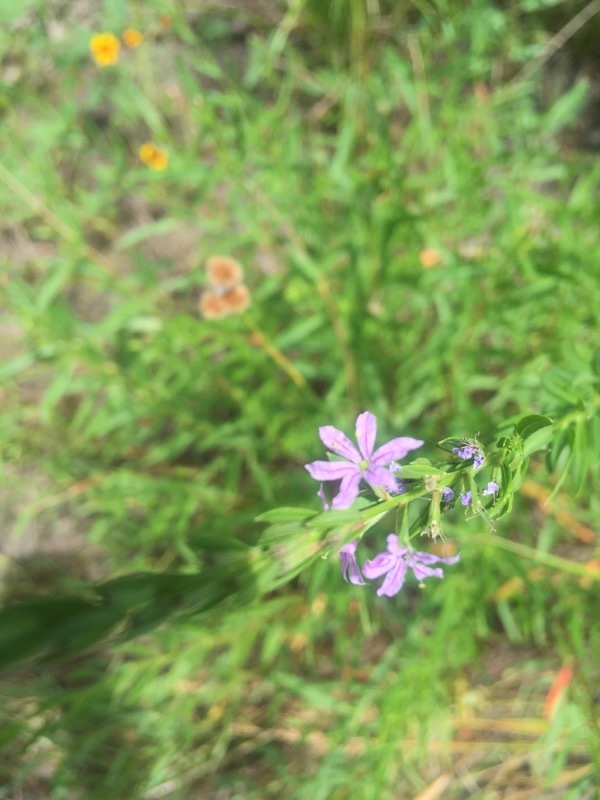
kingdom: Plantae
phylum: Tracheophyta
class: Magnoliopsida
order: Myrtales
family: Lythraceae
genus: Lythrum
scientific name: Lythrum alatum
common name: Winged loosestrife
